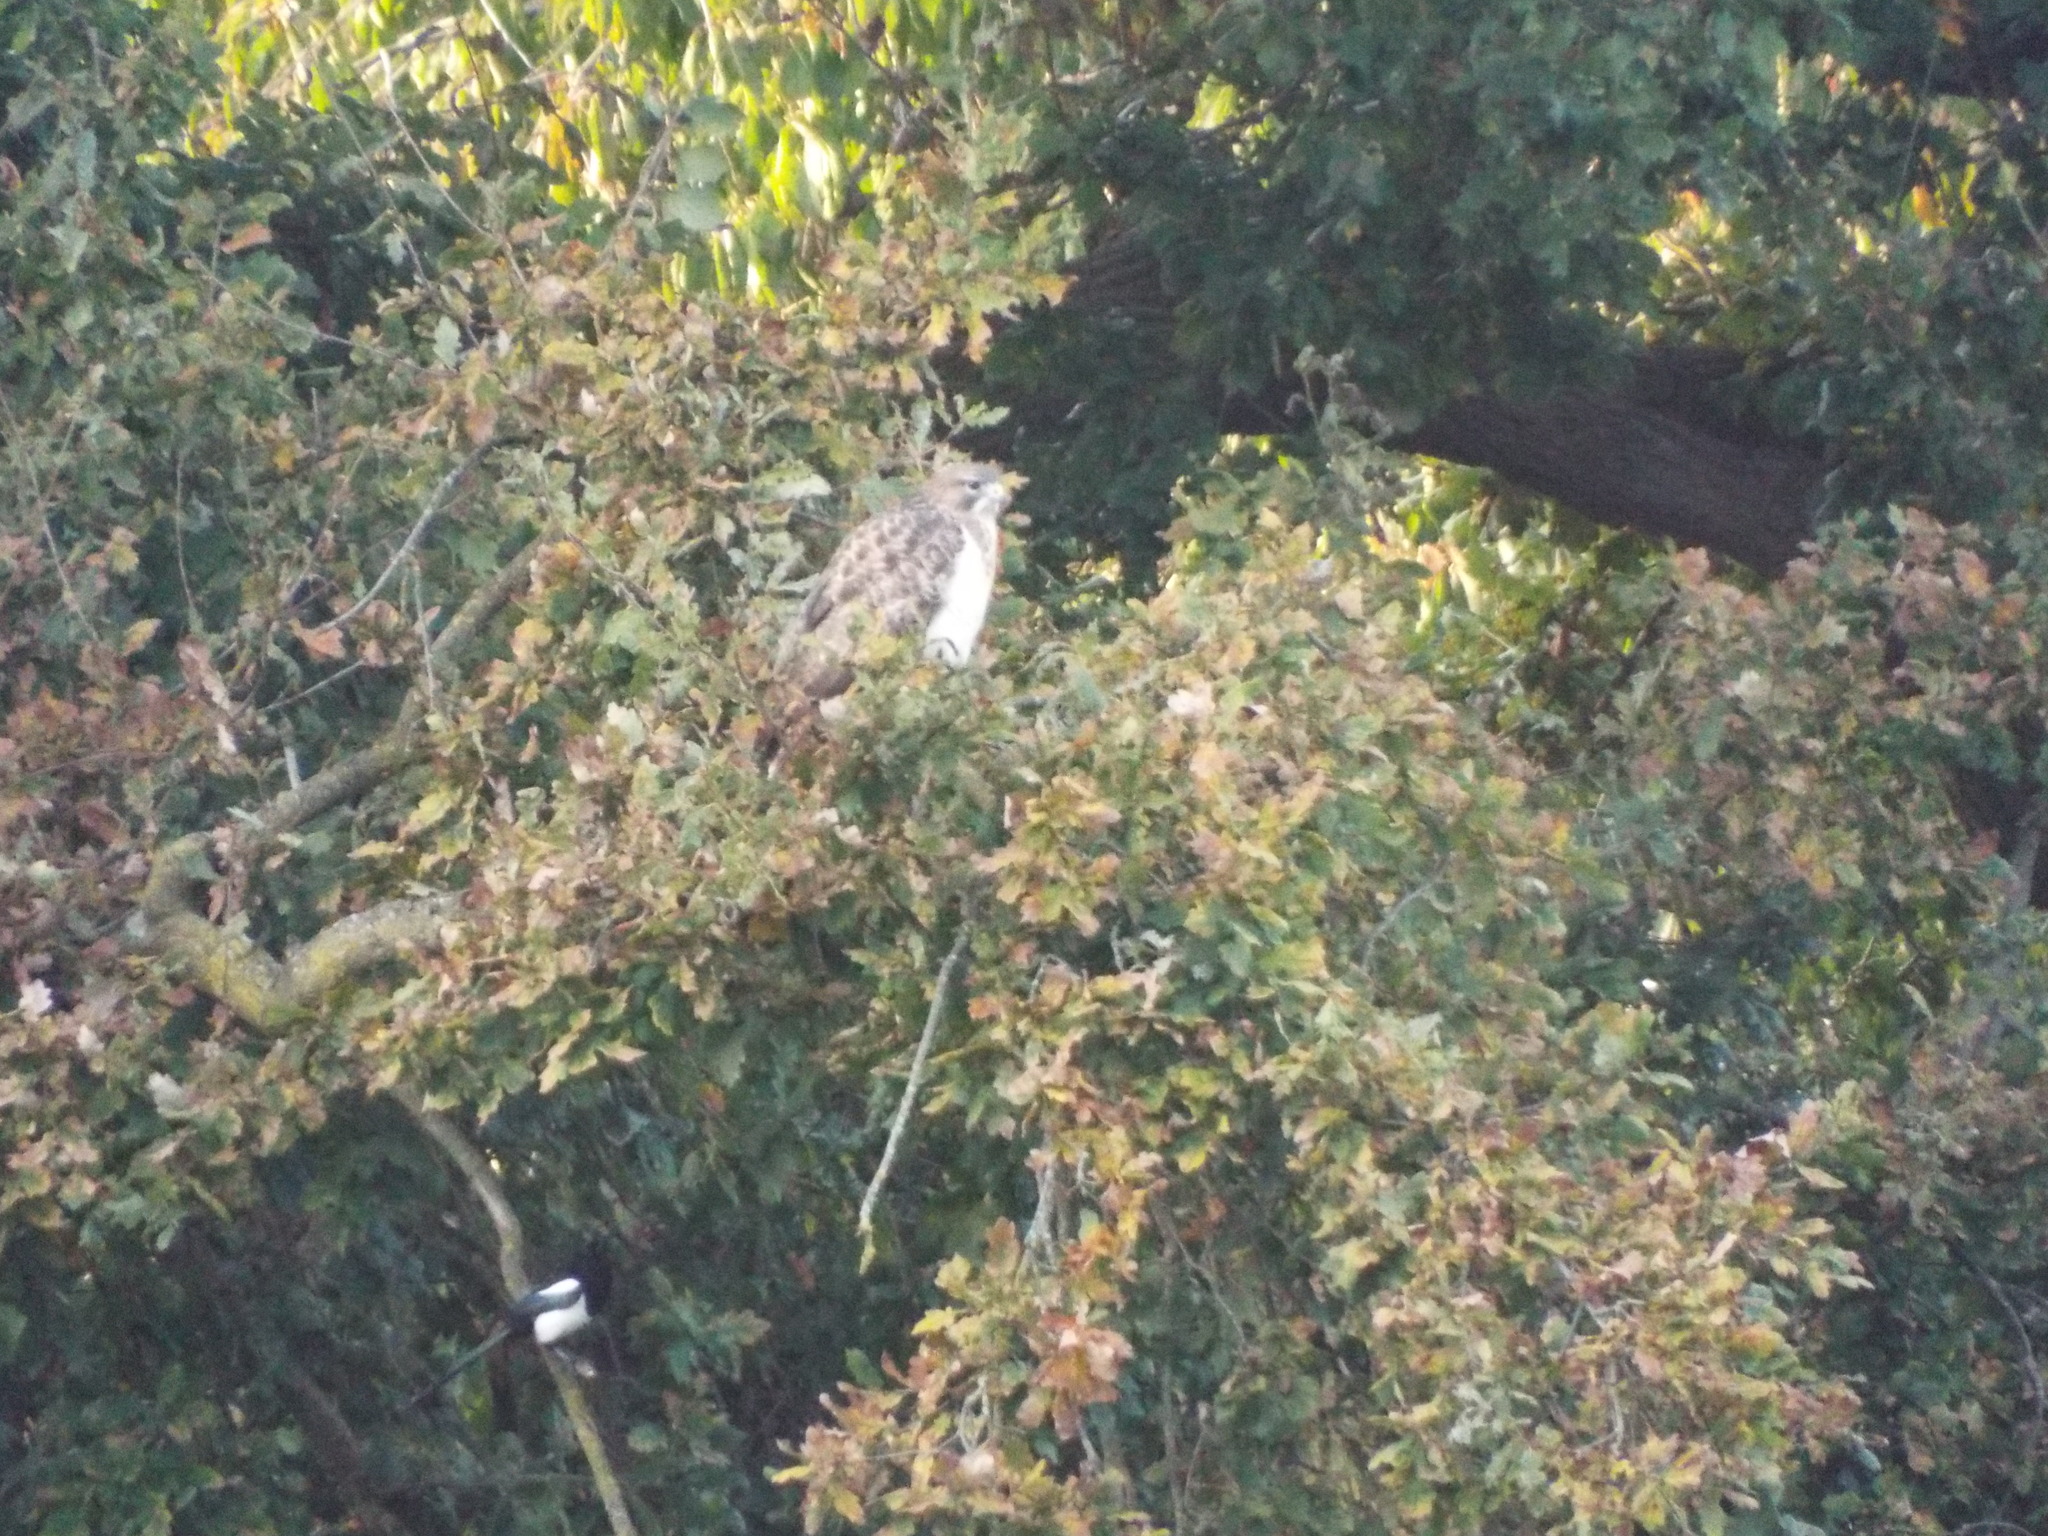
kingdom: Animalia
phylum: Chordata
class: Aves
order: Accipitriformes
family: Accipitridae
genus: Buteo
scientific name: Buteo buteo
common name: Common buzzard
